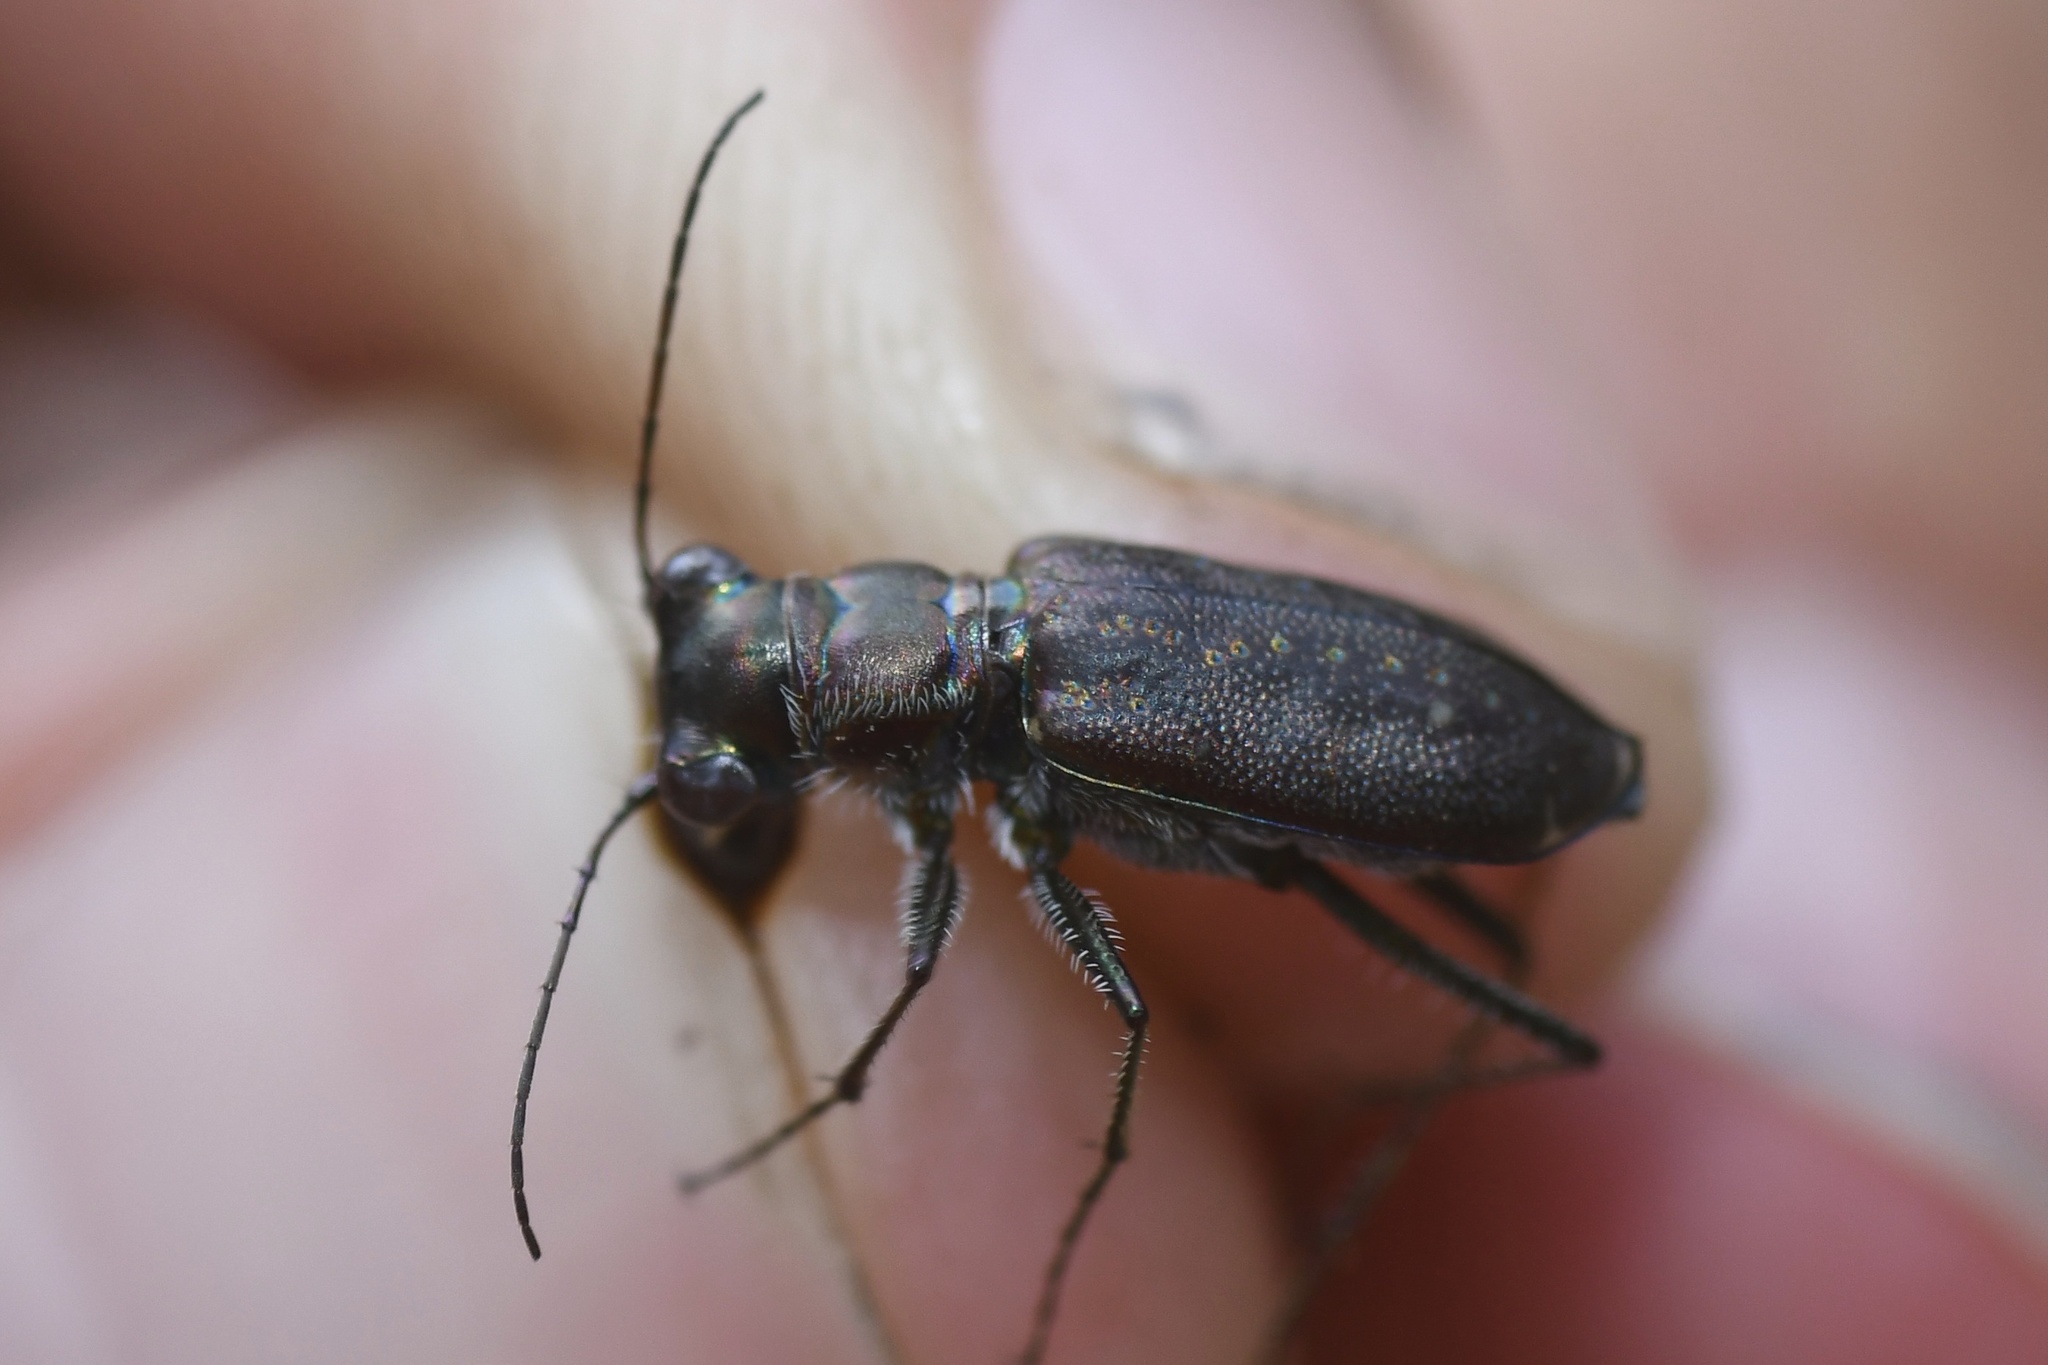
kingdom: Animalia
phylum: Arthropoda
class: Insecta
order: Coleoptera
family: Carabidae
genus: Cicindela
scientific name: Cicindela punctulata
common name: Punctured tiger beetle
